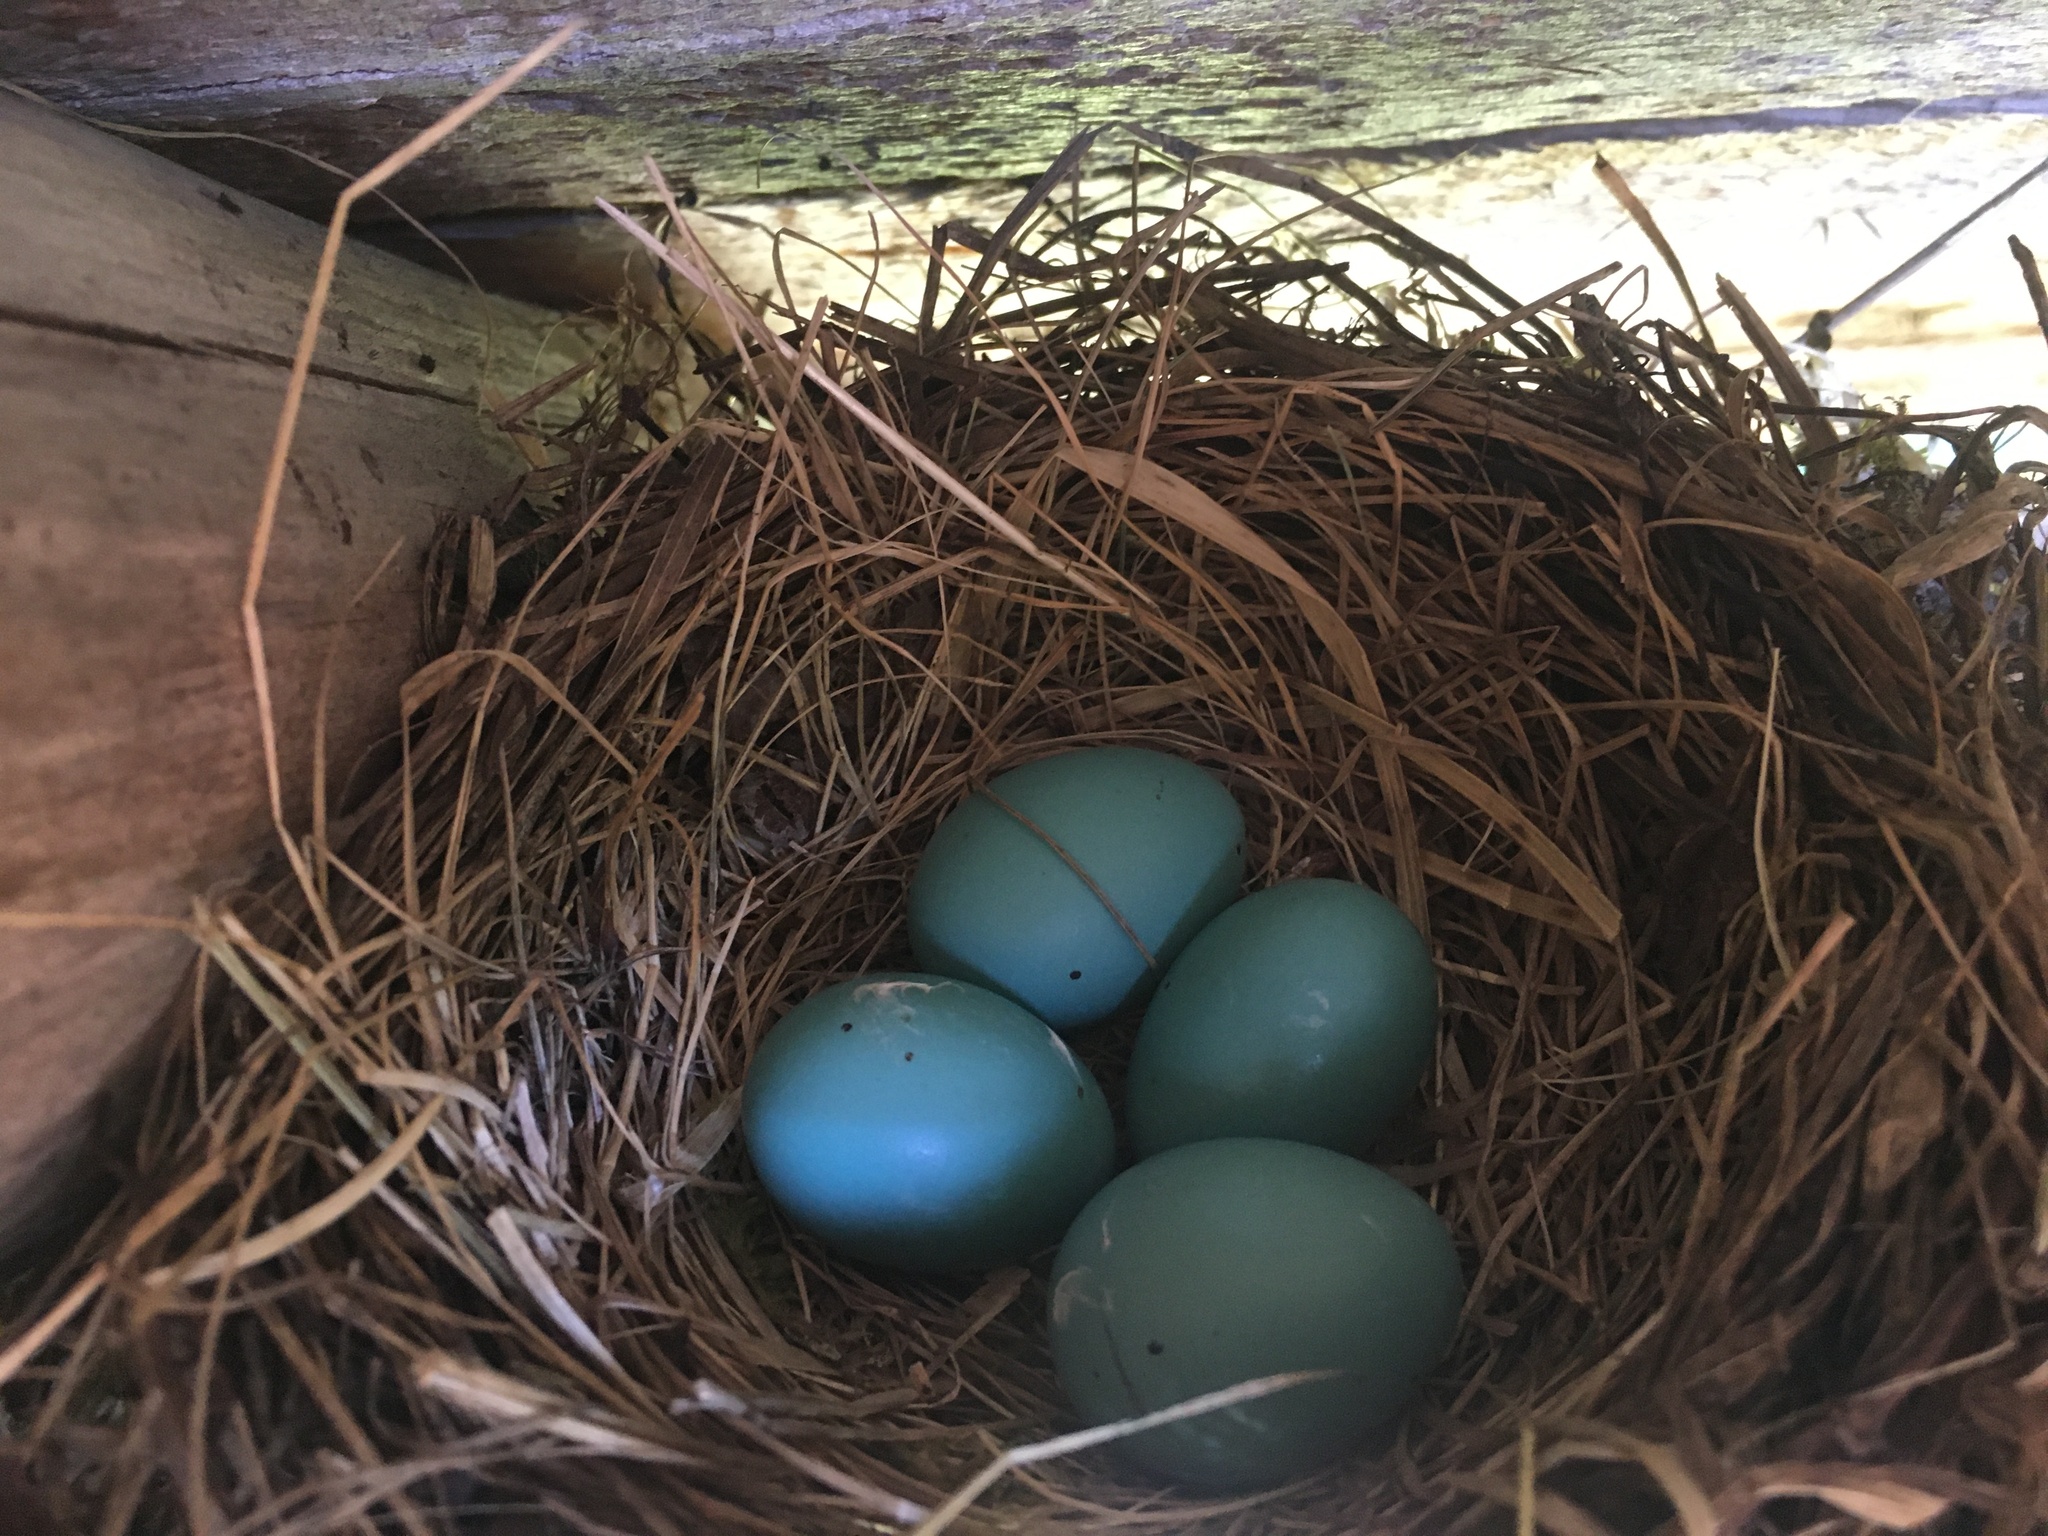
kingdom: Animalia
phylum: Chordata
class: Aves
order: Passeriformes
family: Turdidae
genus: Turdus
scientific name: Turdus migratorius
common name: American robin
